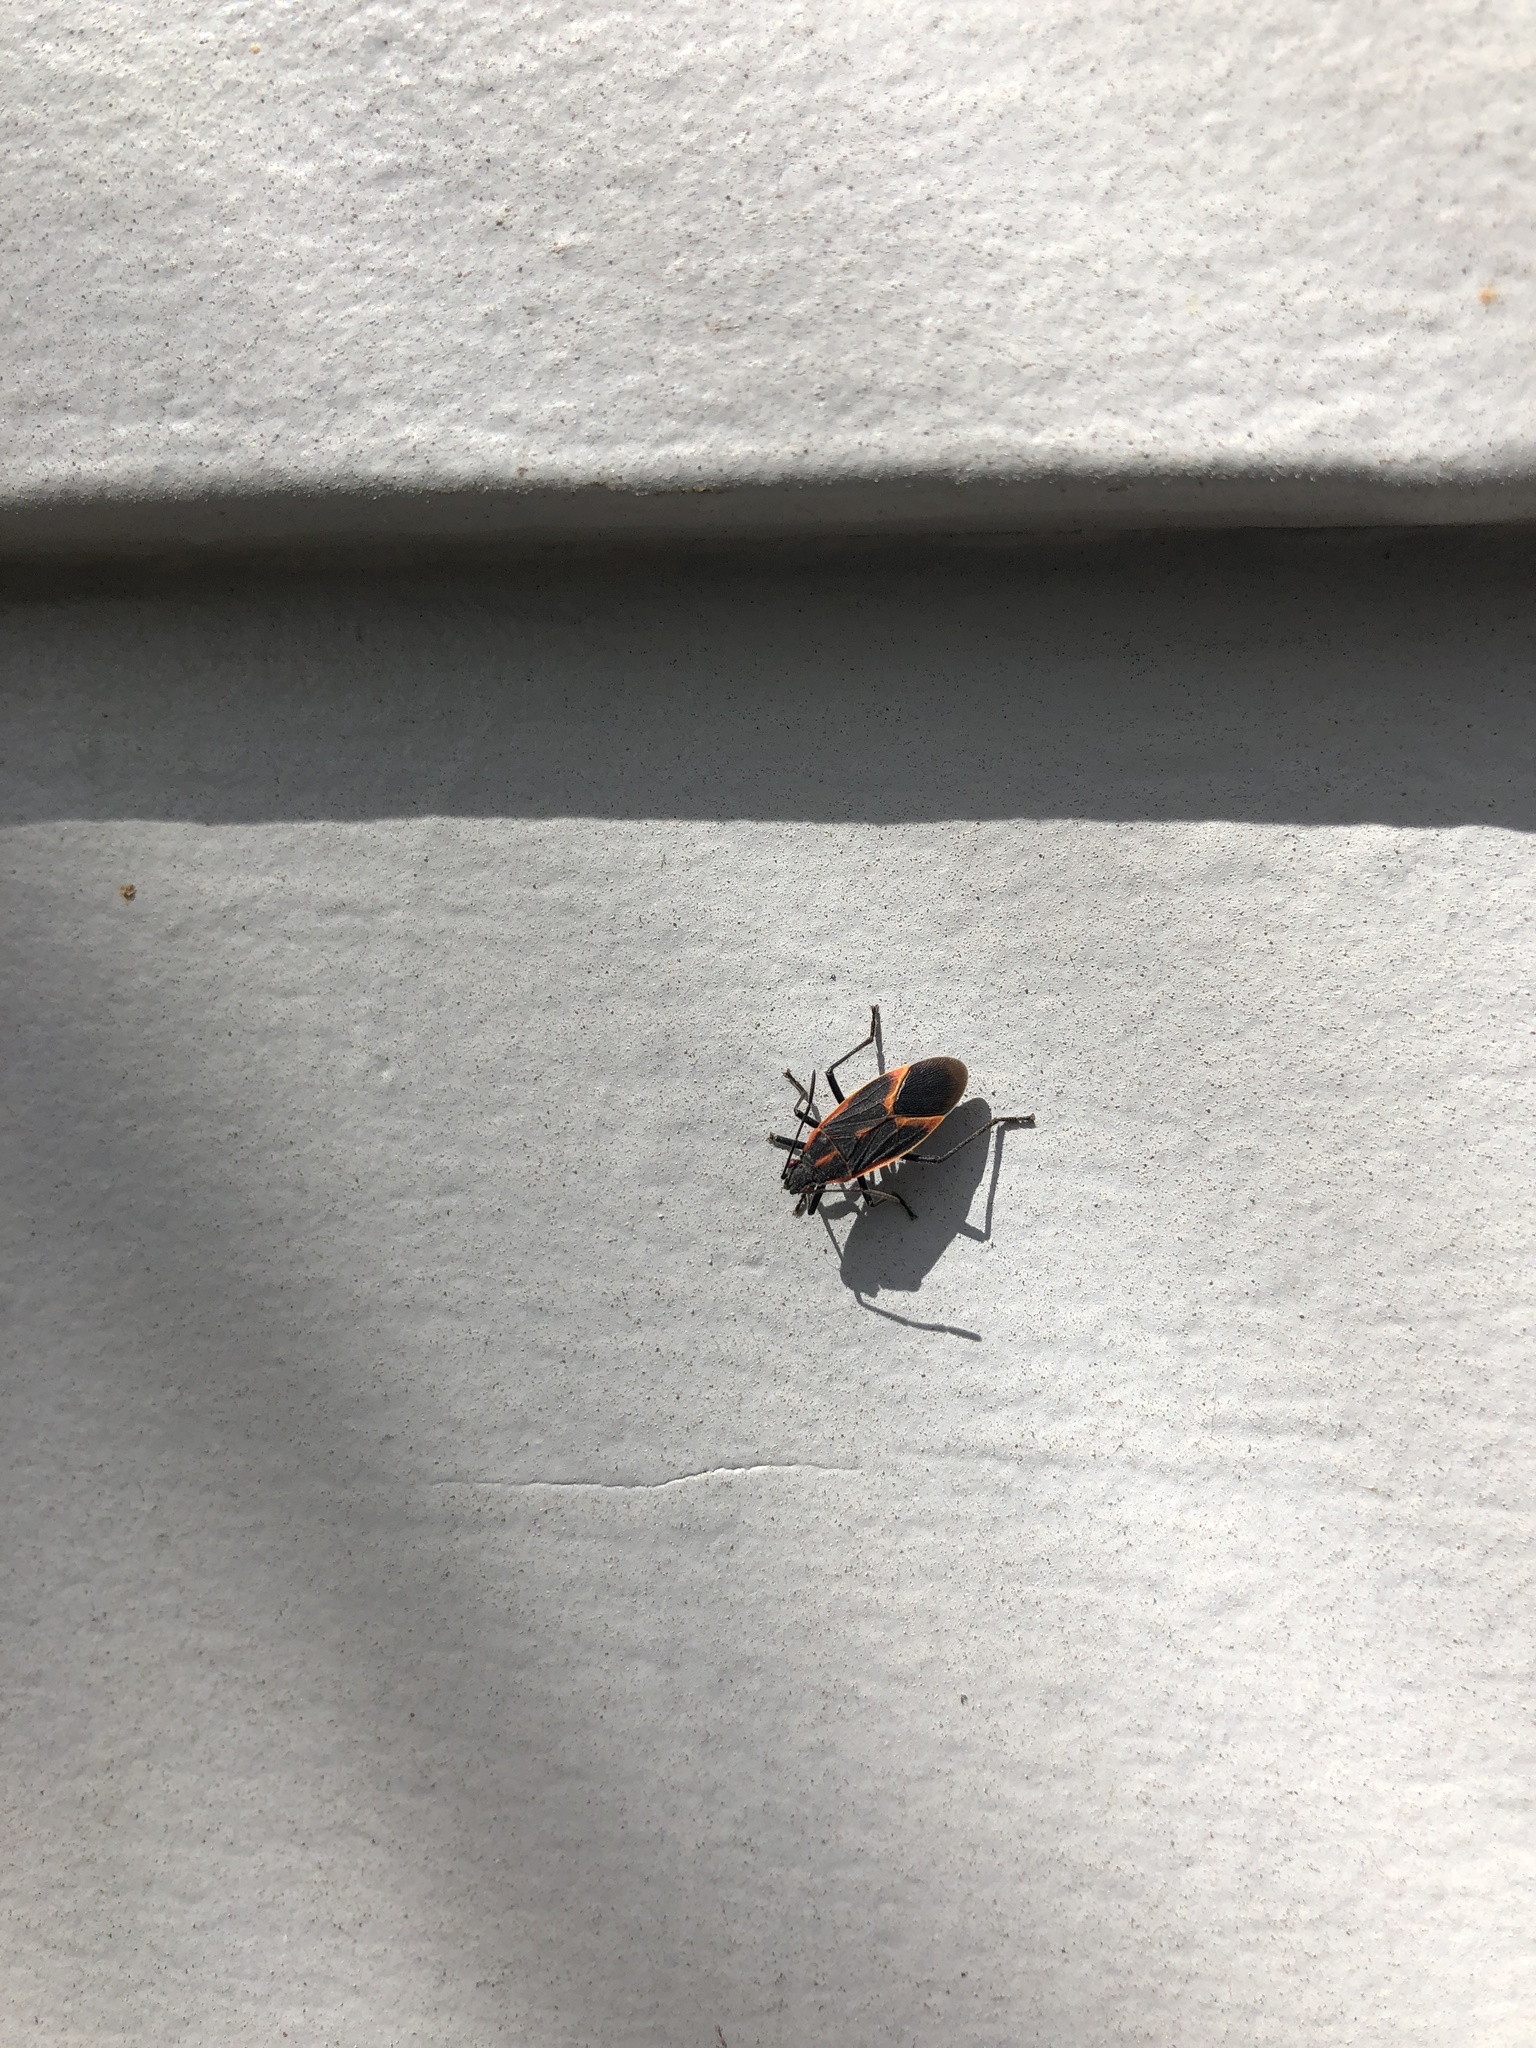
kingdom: Animalia
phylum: Arthropoda
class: Insecta
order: Hemiptera
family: Rhopalidae
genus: Boisea
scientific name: Boisea trivittata
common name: Boxelder bug
